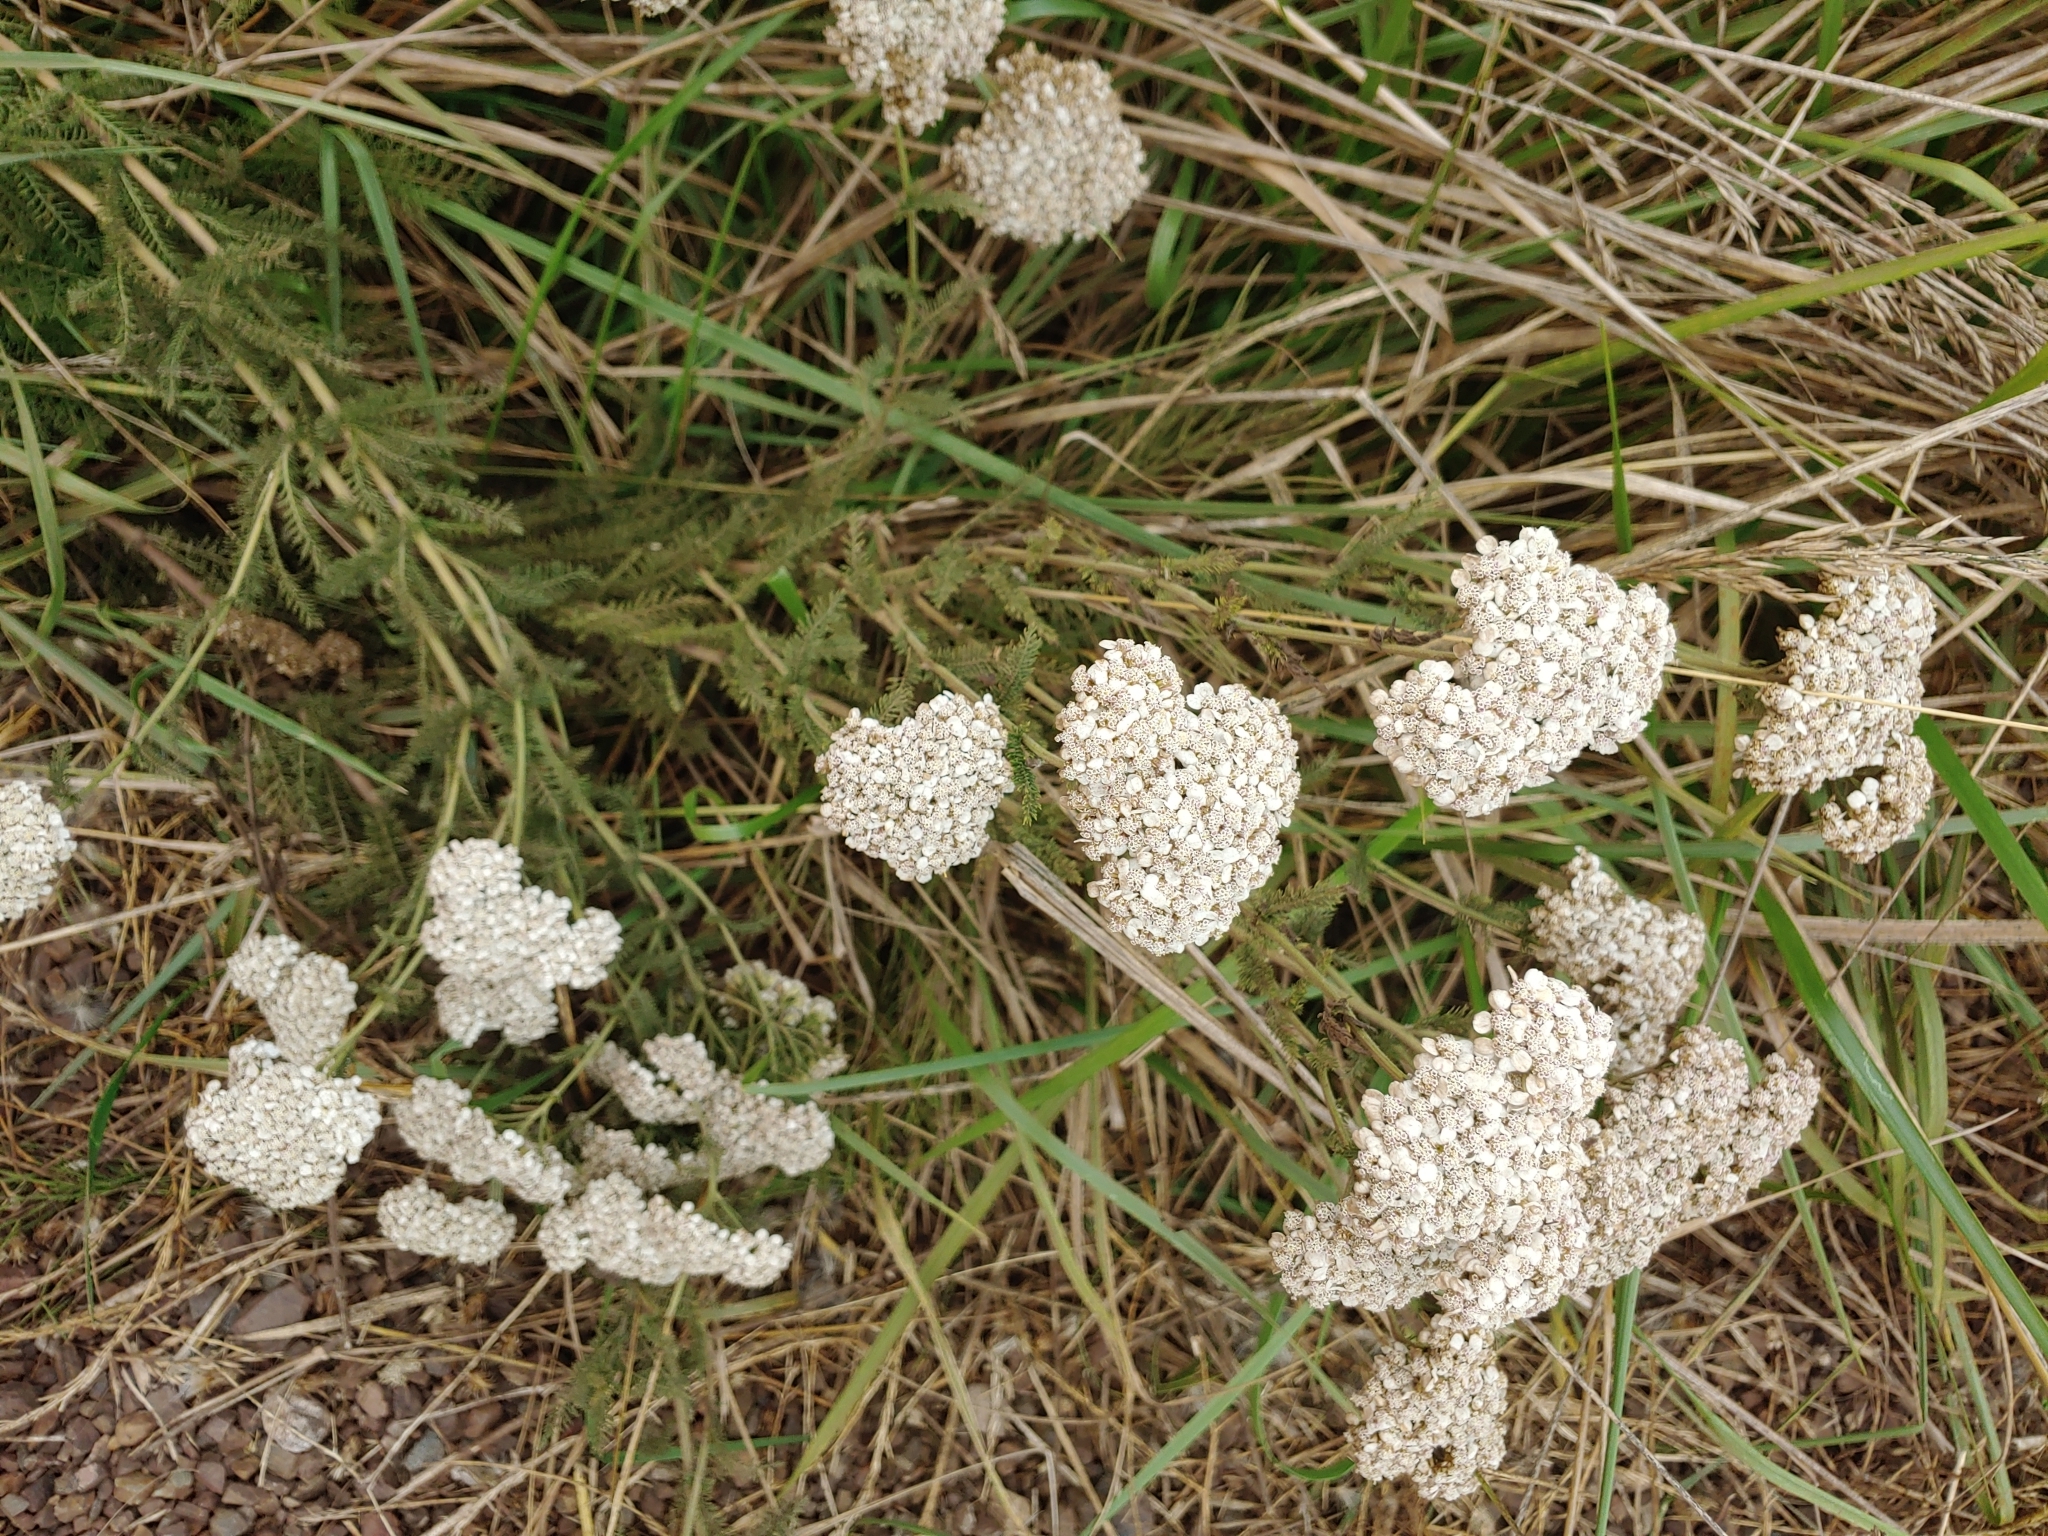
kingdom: Plantae
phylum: Tracheophyta
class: Magnoliopsida
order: Asterales
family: Asteraceae
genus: Achillea
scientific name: Achillea millefolium
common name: Yarrow
